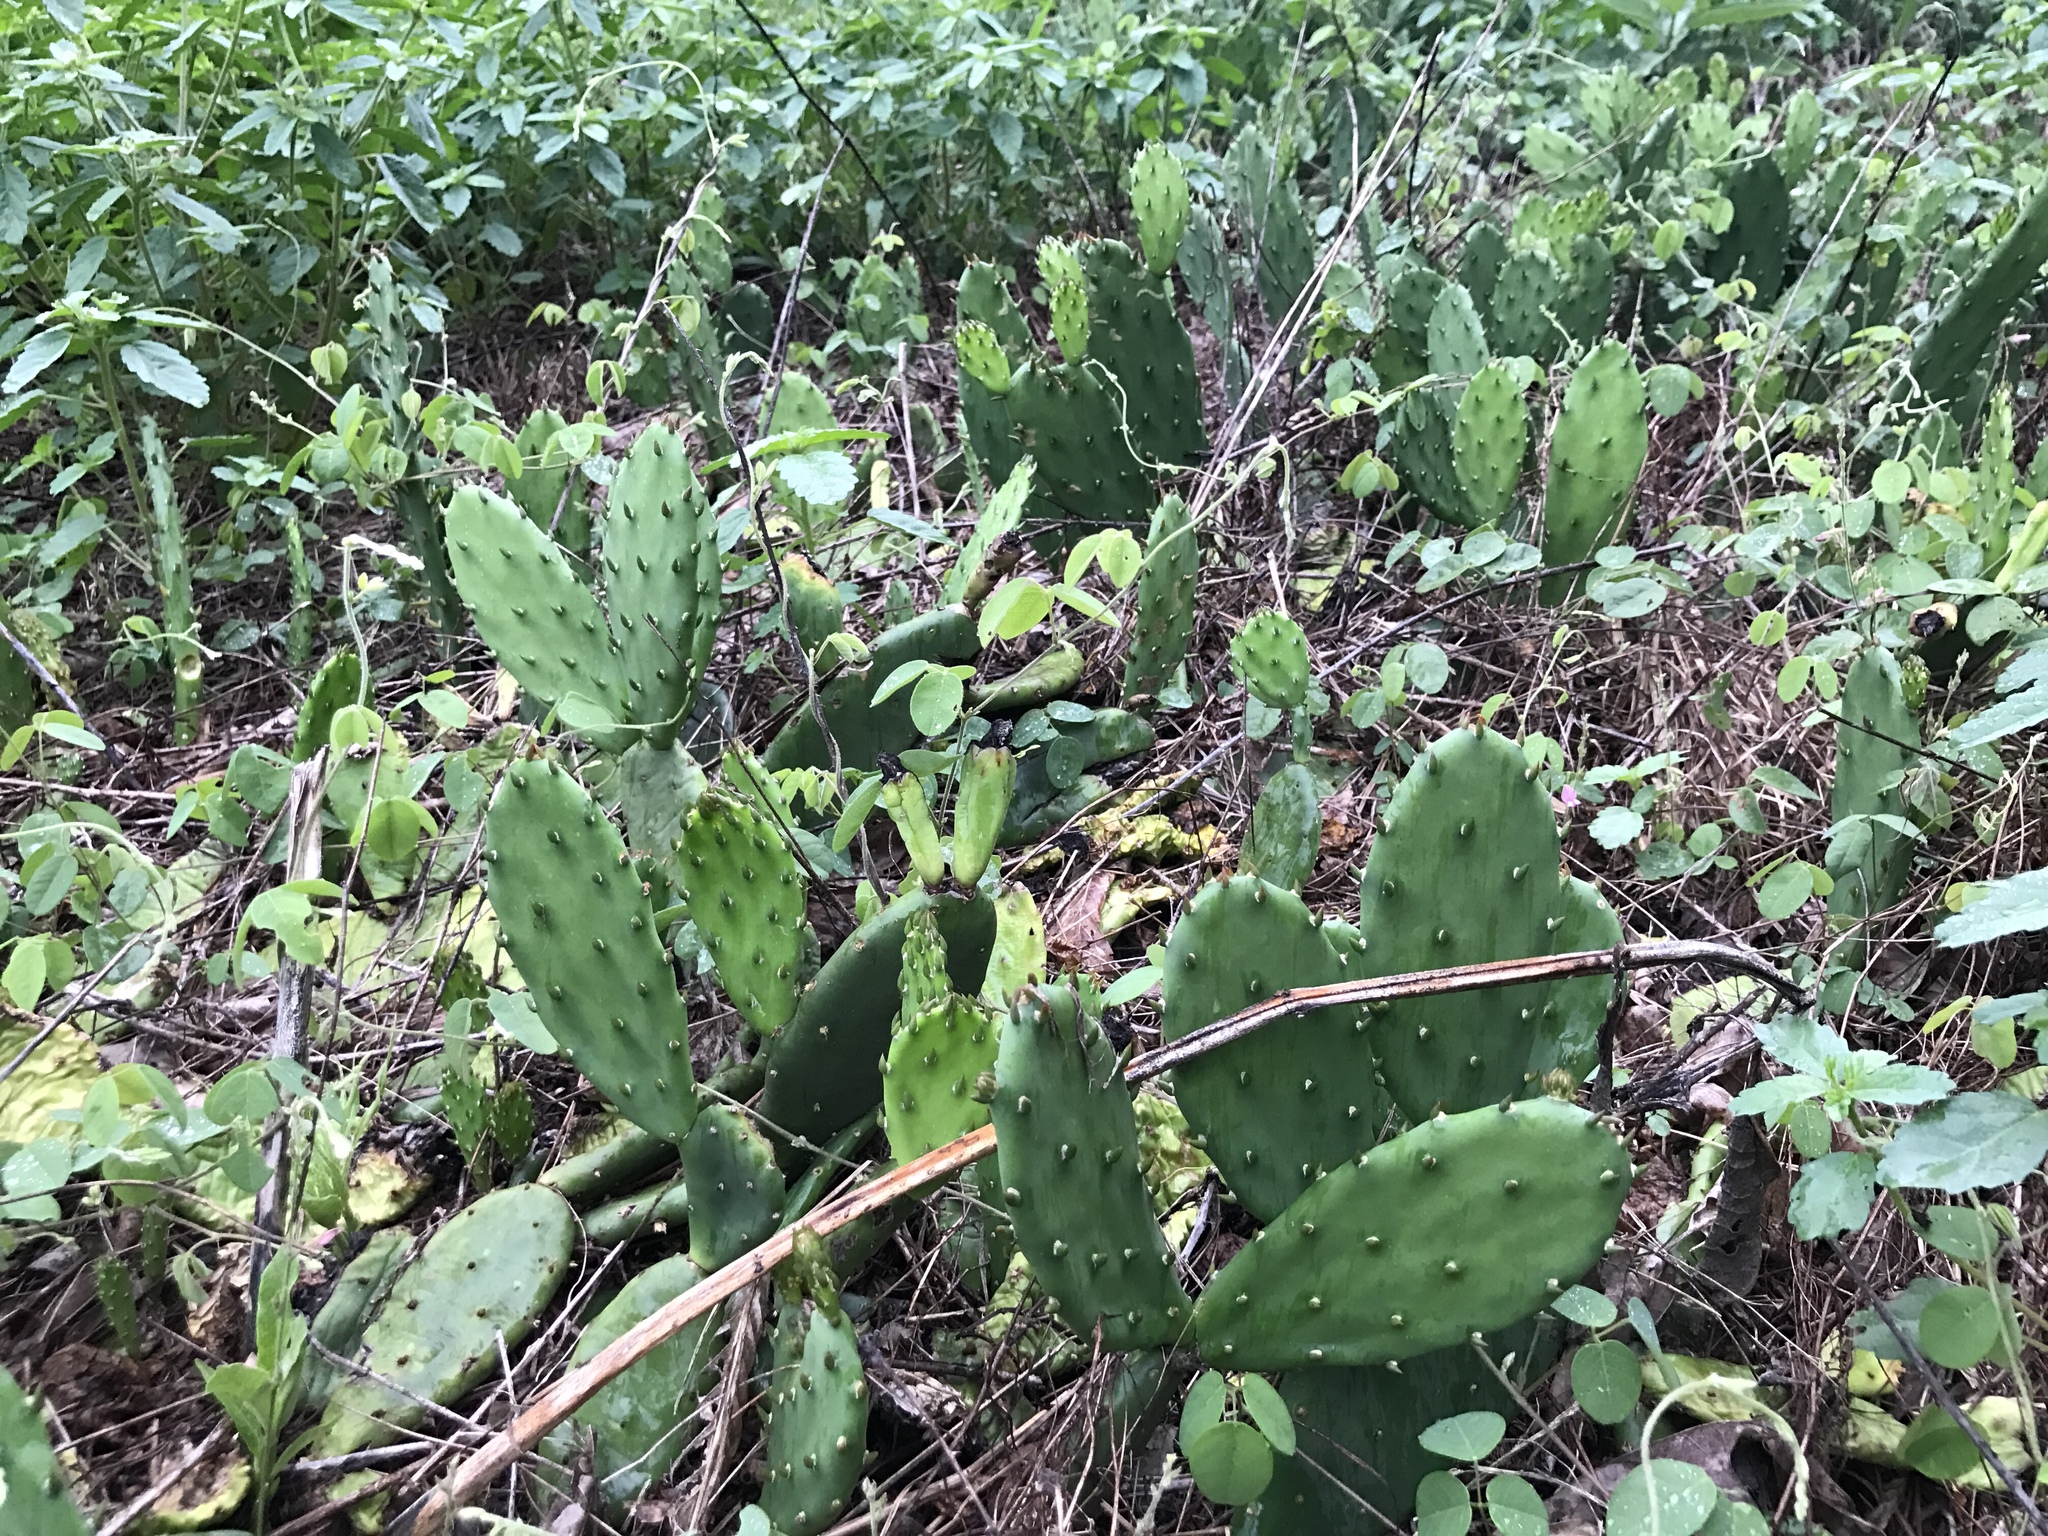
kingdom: Plantae
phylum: Tracheophyta
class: Magnoliopsida
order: Caryophyllales
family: Cactaceae
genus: Opuntia
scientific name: Opuntia humifusa
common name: Eastern prickly-pear
